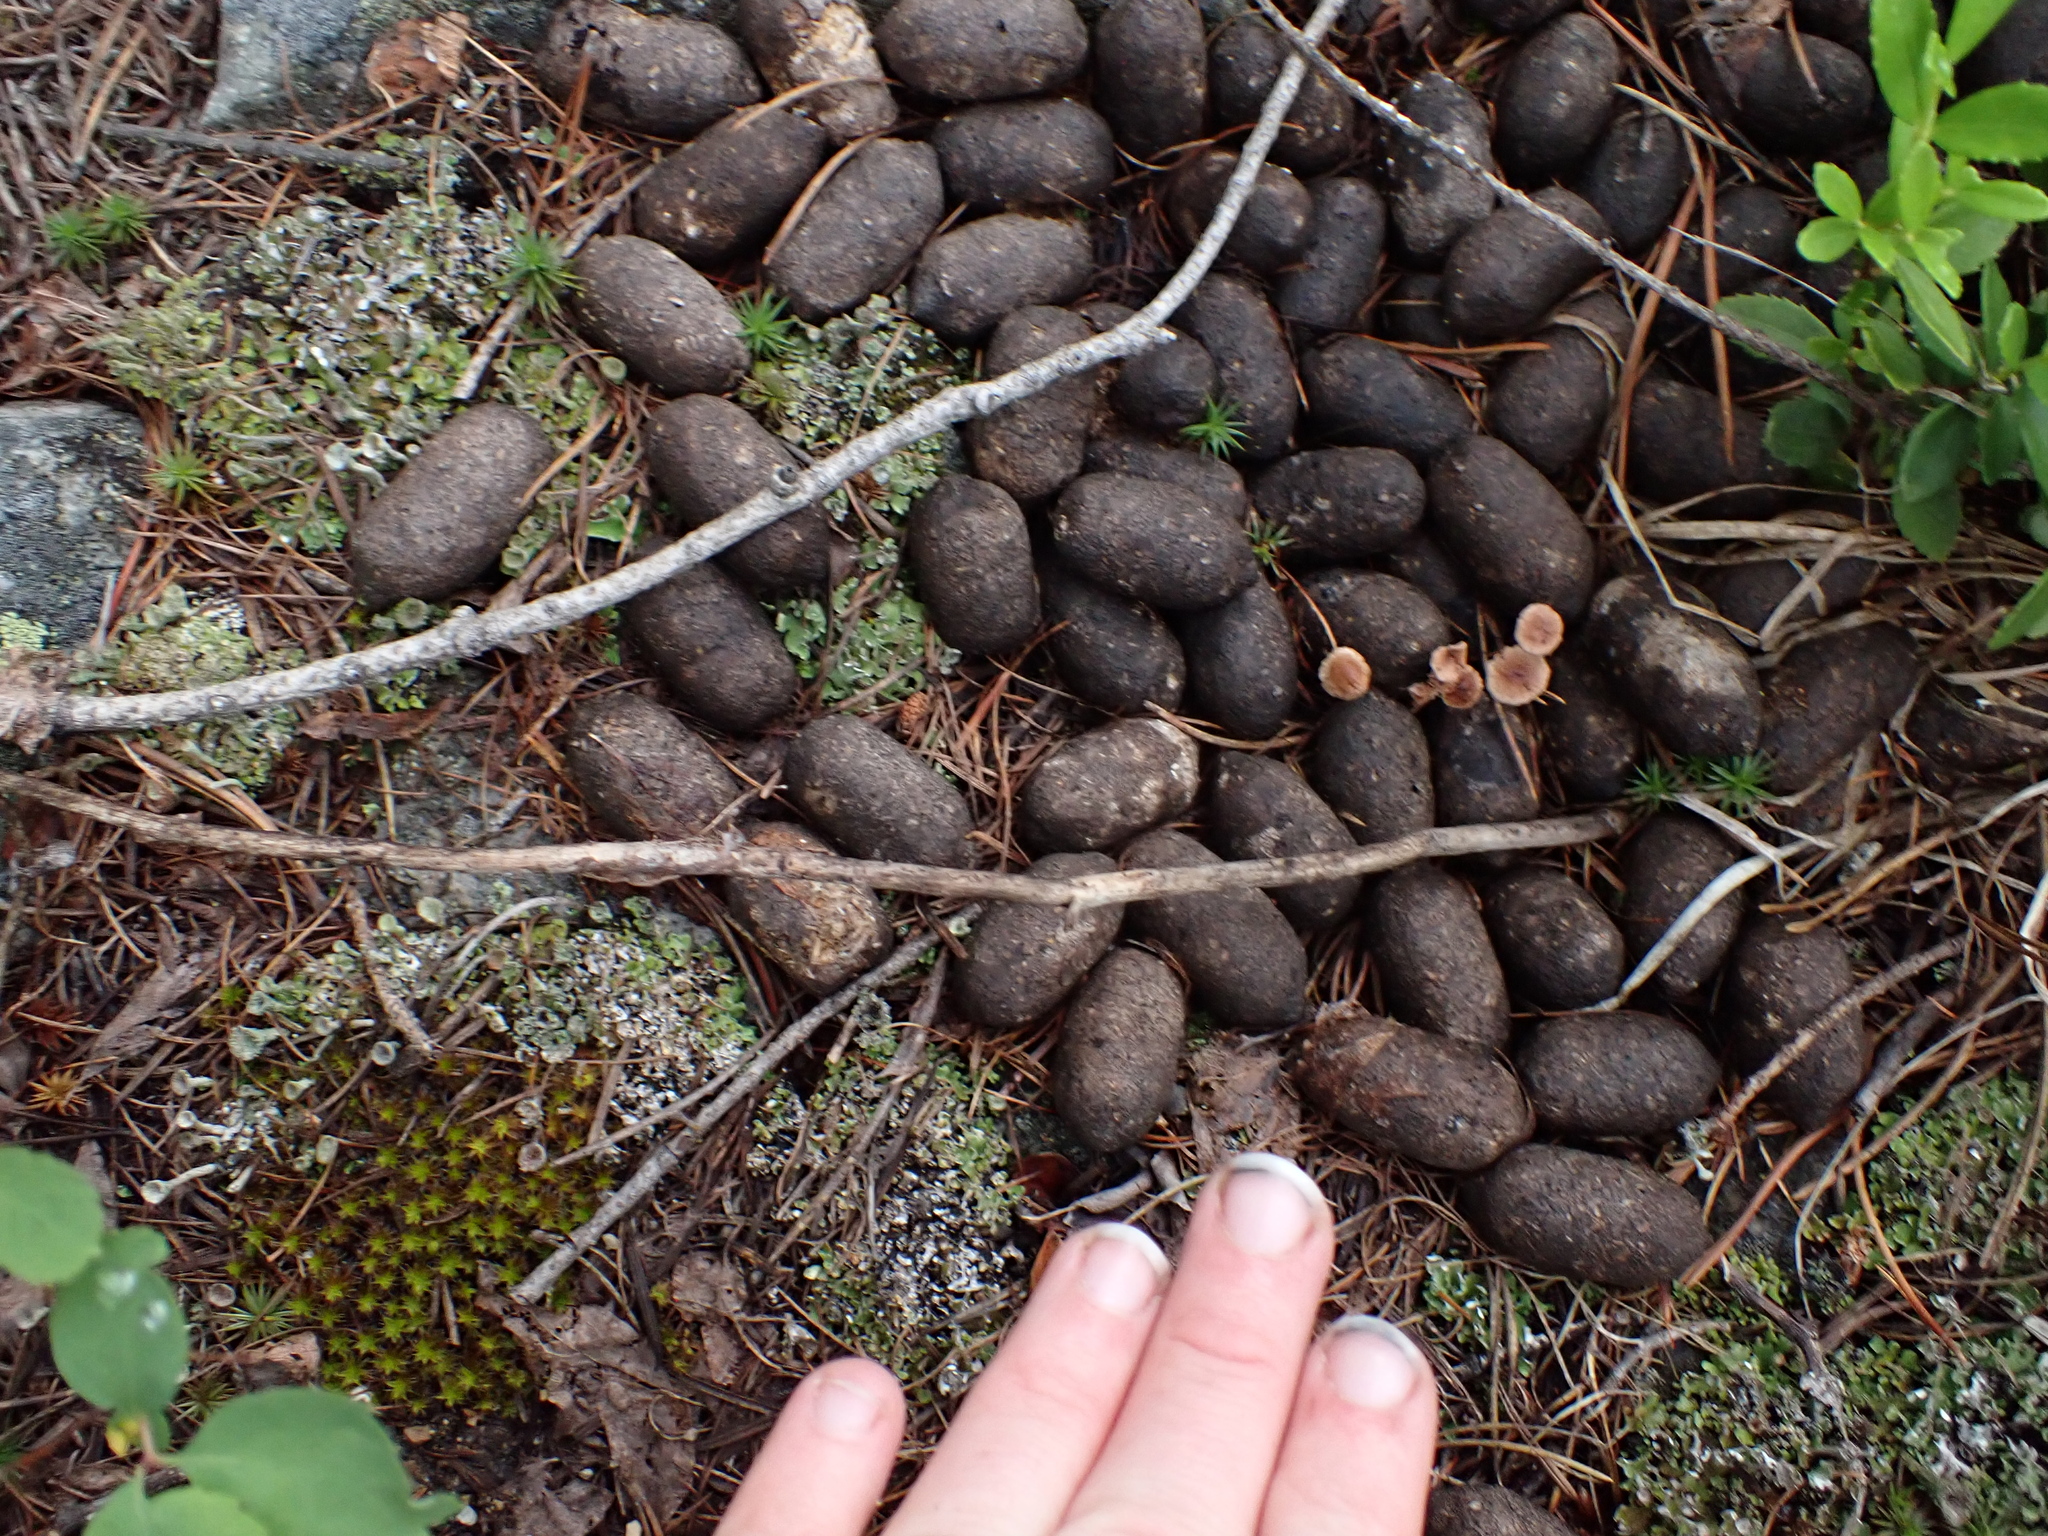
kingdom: Animalia
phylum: Chordata
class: Mammalia
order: Artiodactyla
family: Cervidae
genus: Alces
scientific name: Alces alces
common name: Moose
